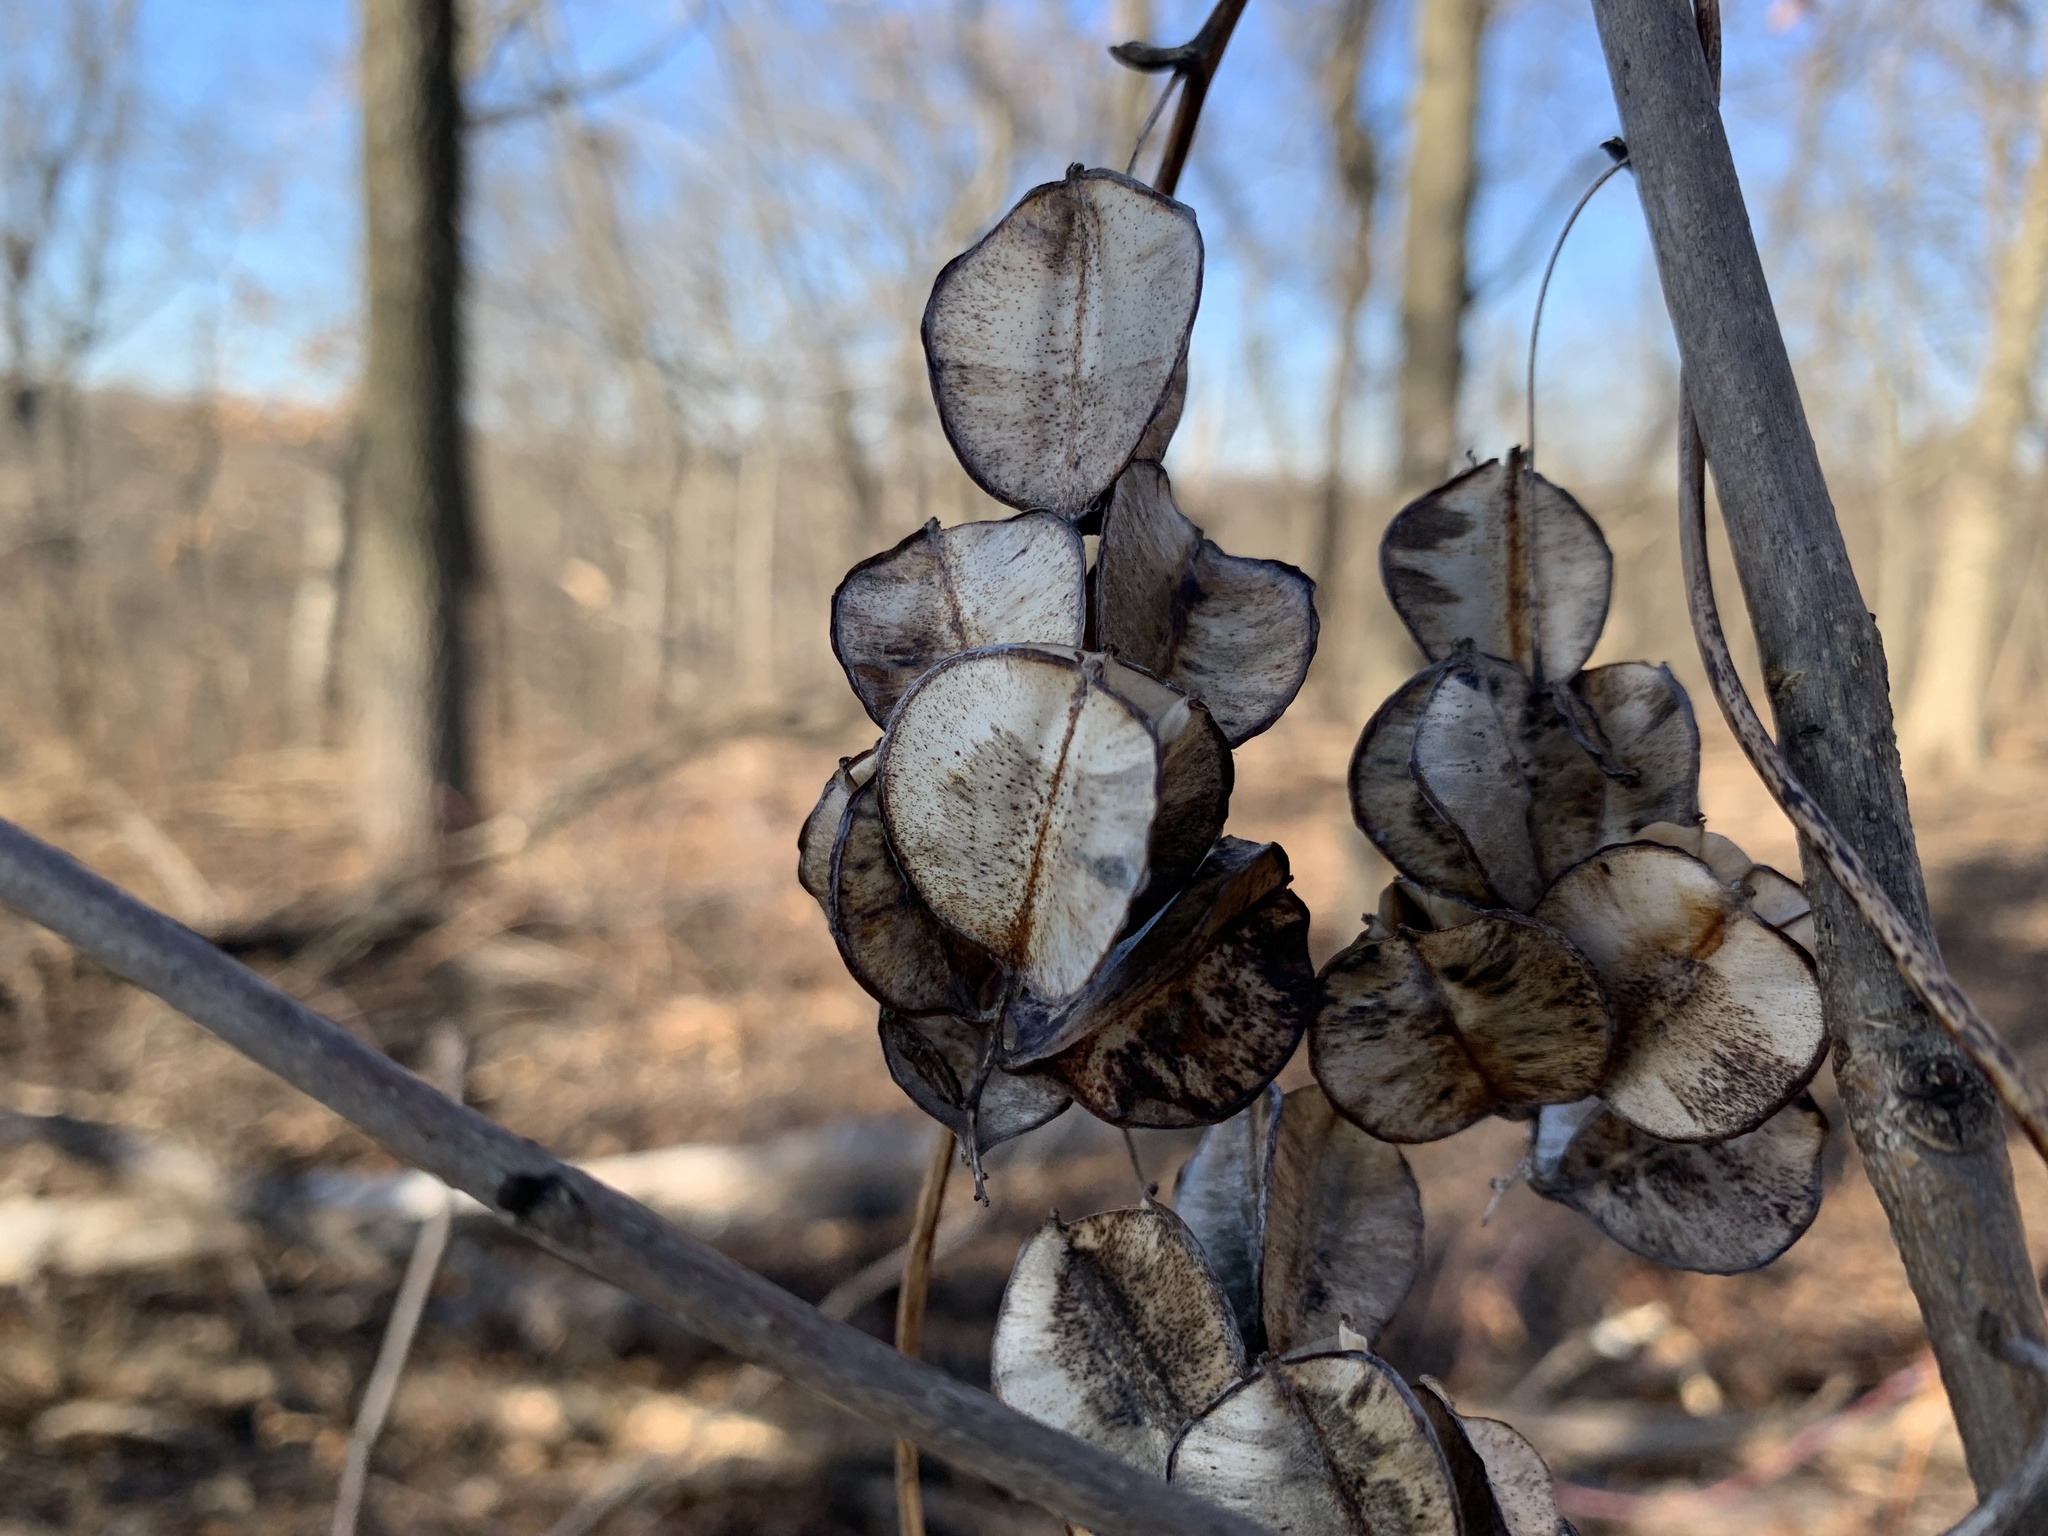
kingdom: Plantae
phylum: Tracheophyta
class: Liliopsida
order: Dioscoreales
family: Dioscoreaceae
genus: Dioscorea
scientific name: Dioscorea villosa
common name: Wild yam
